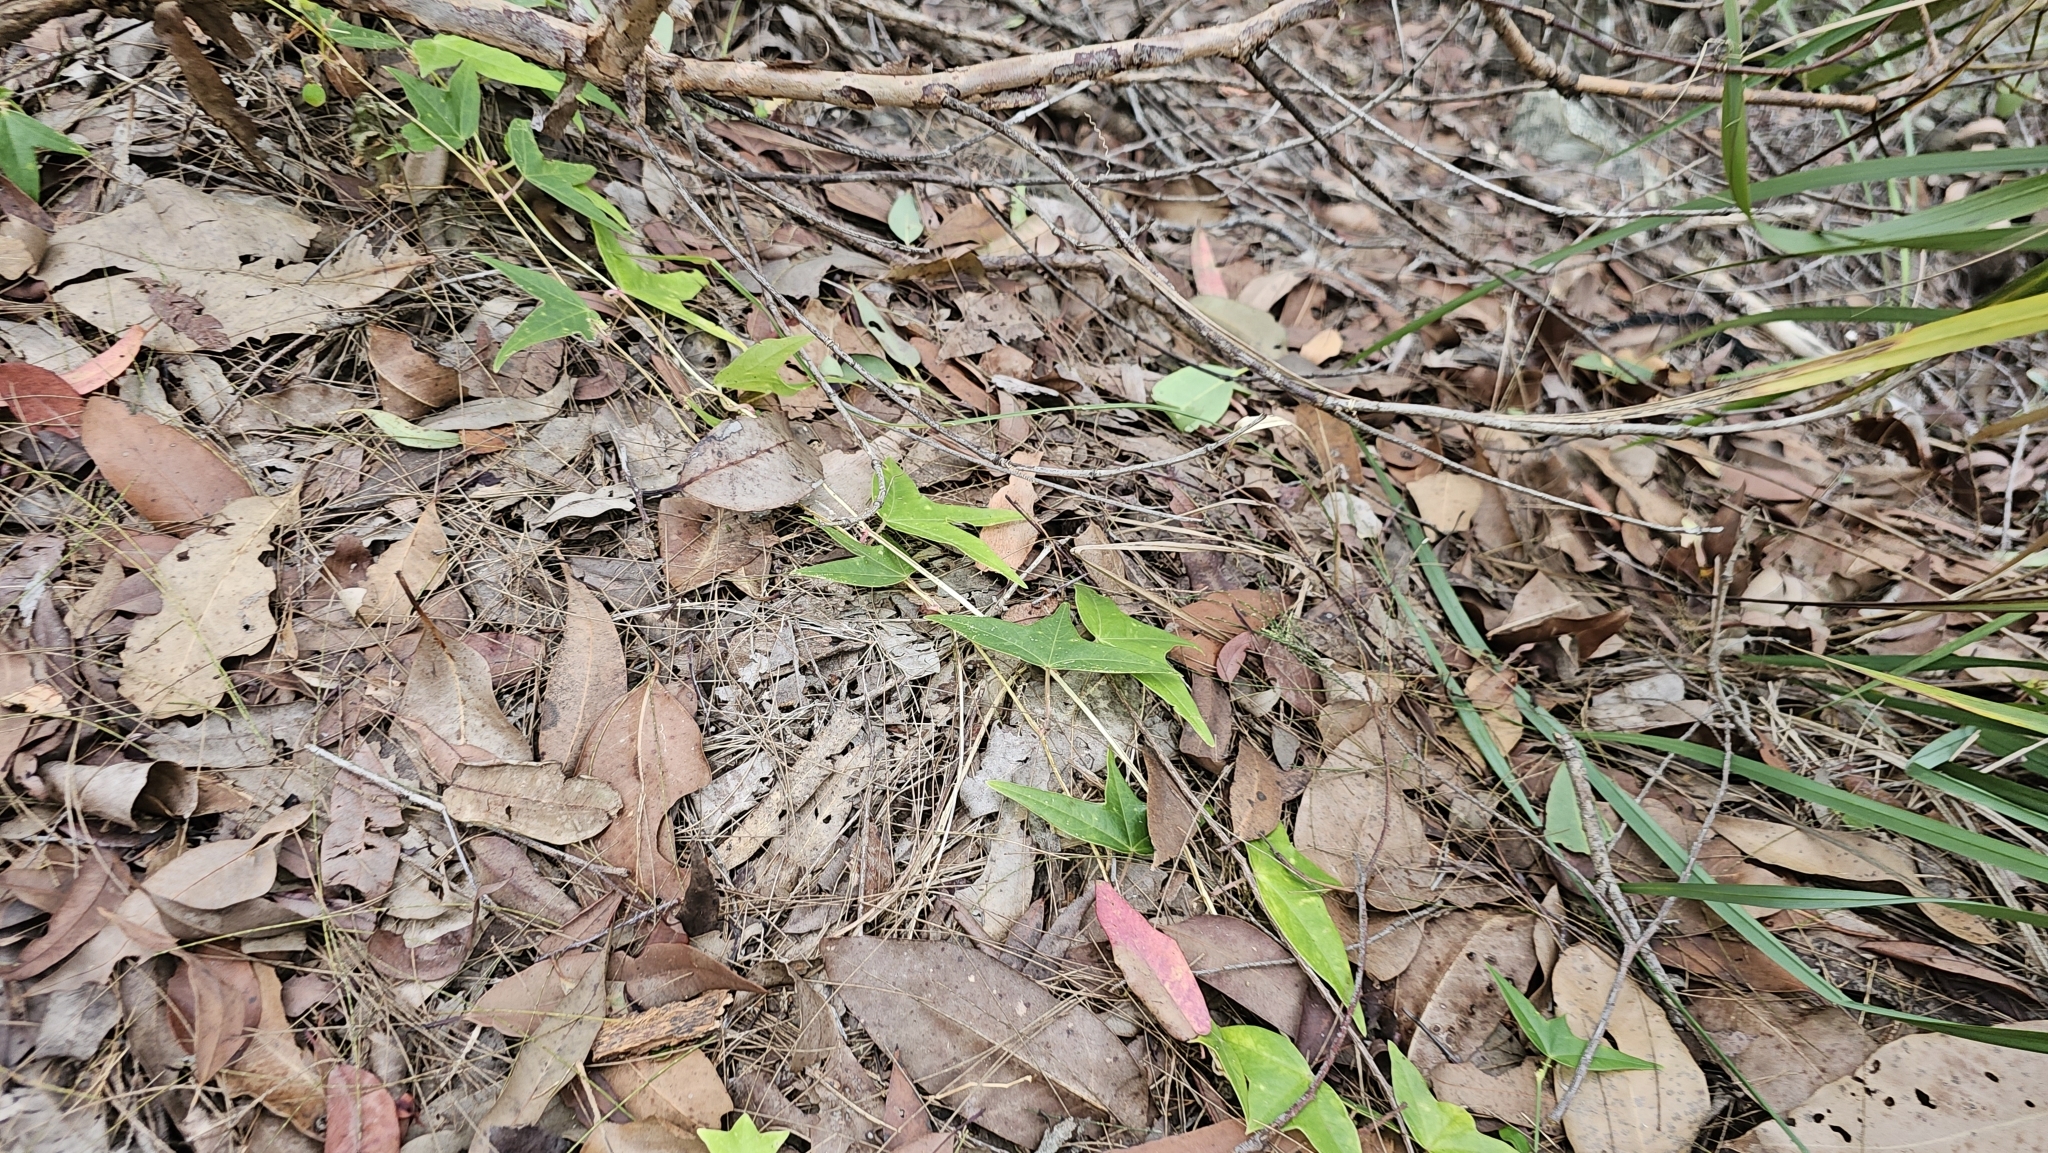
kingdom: Plantae
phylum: Tracheophyta
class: Magnoliopsida
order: Malpighiales
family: Passifloraceae
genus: Passiflora
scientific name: Passiflora suberosa
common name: Wild passionfruit
